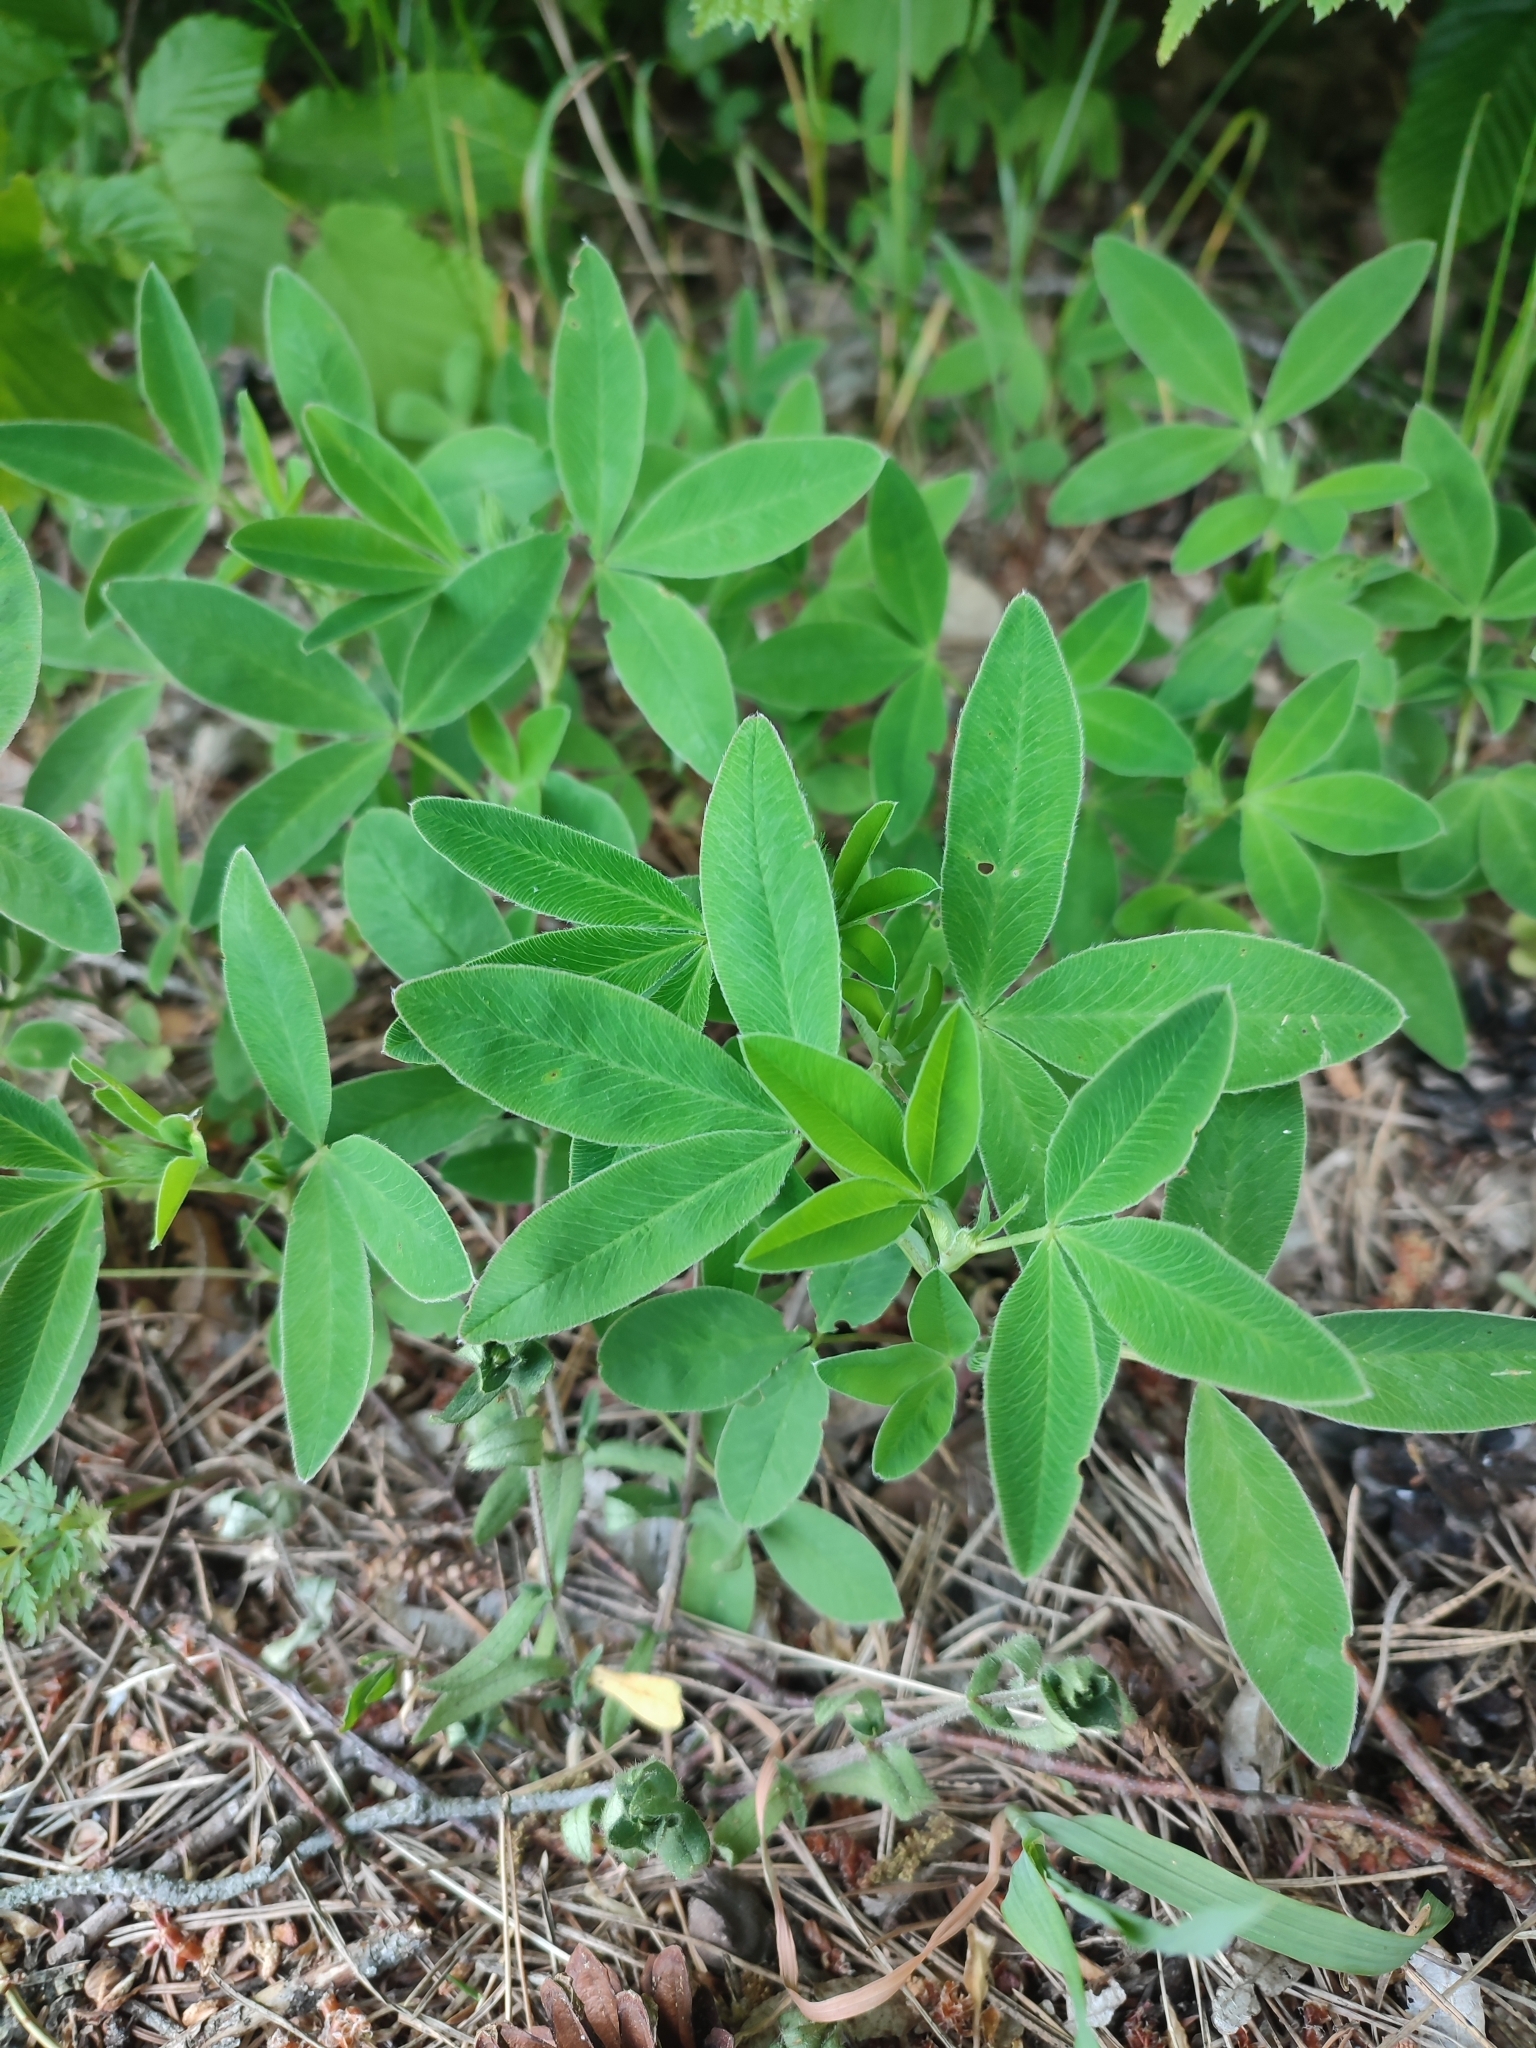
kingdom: Plantae
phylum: Tracheophyta
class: Magnoliopsida
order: Fabales
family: Fabaceae
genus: Trifolium
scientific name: Trifolium medium
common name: Zigzag clover
